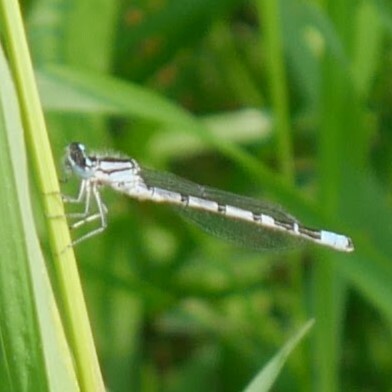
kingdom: Animalia
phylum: Arthropoda
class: Insecta
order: Odonata
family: Coenagrionidae
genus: Enallagma
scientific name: Enallagma cyathigerum
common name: Common blue damselfly
